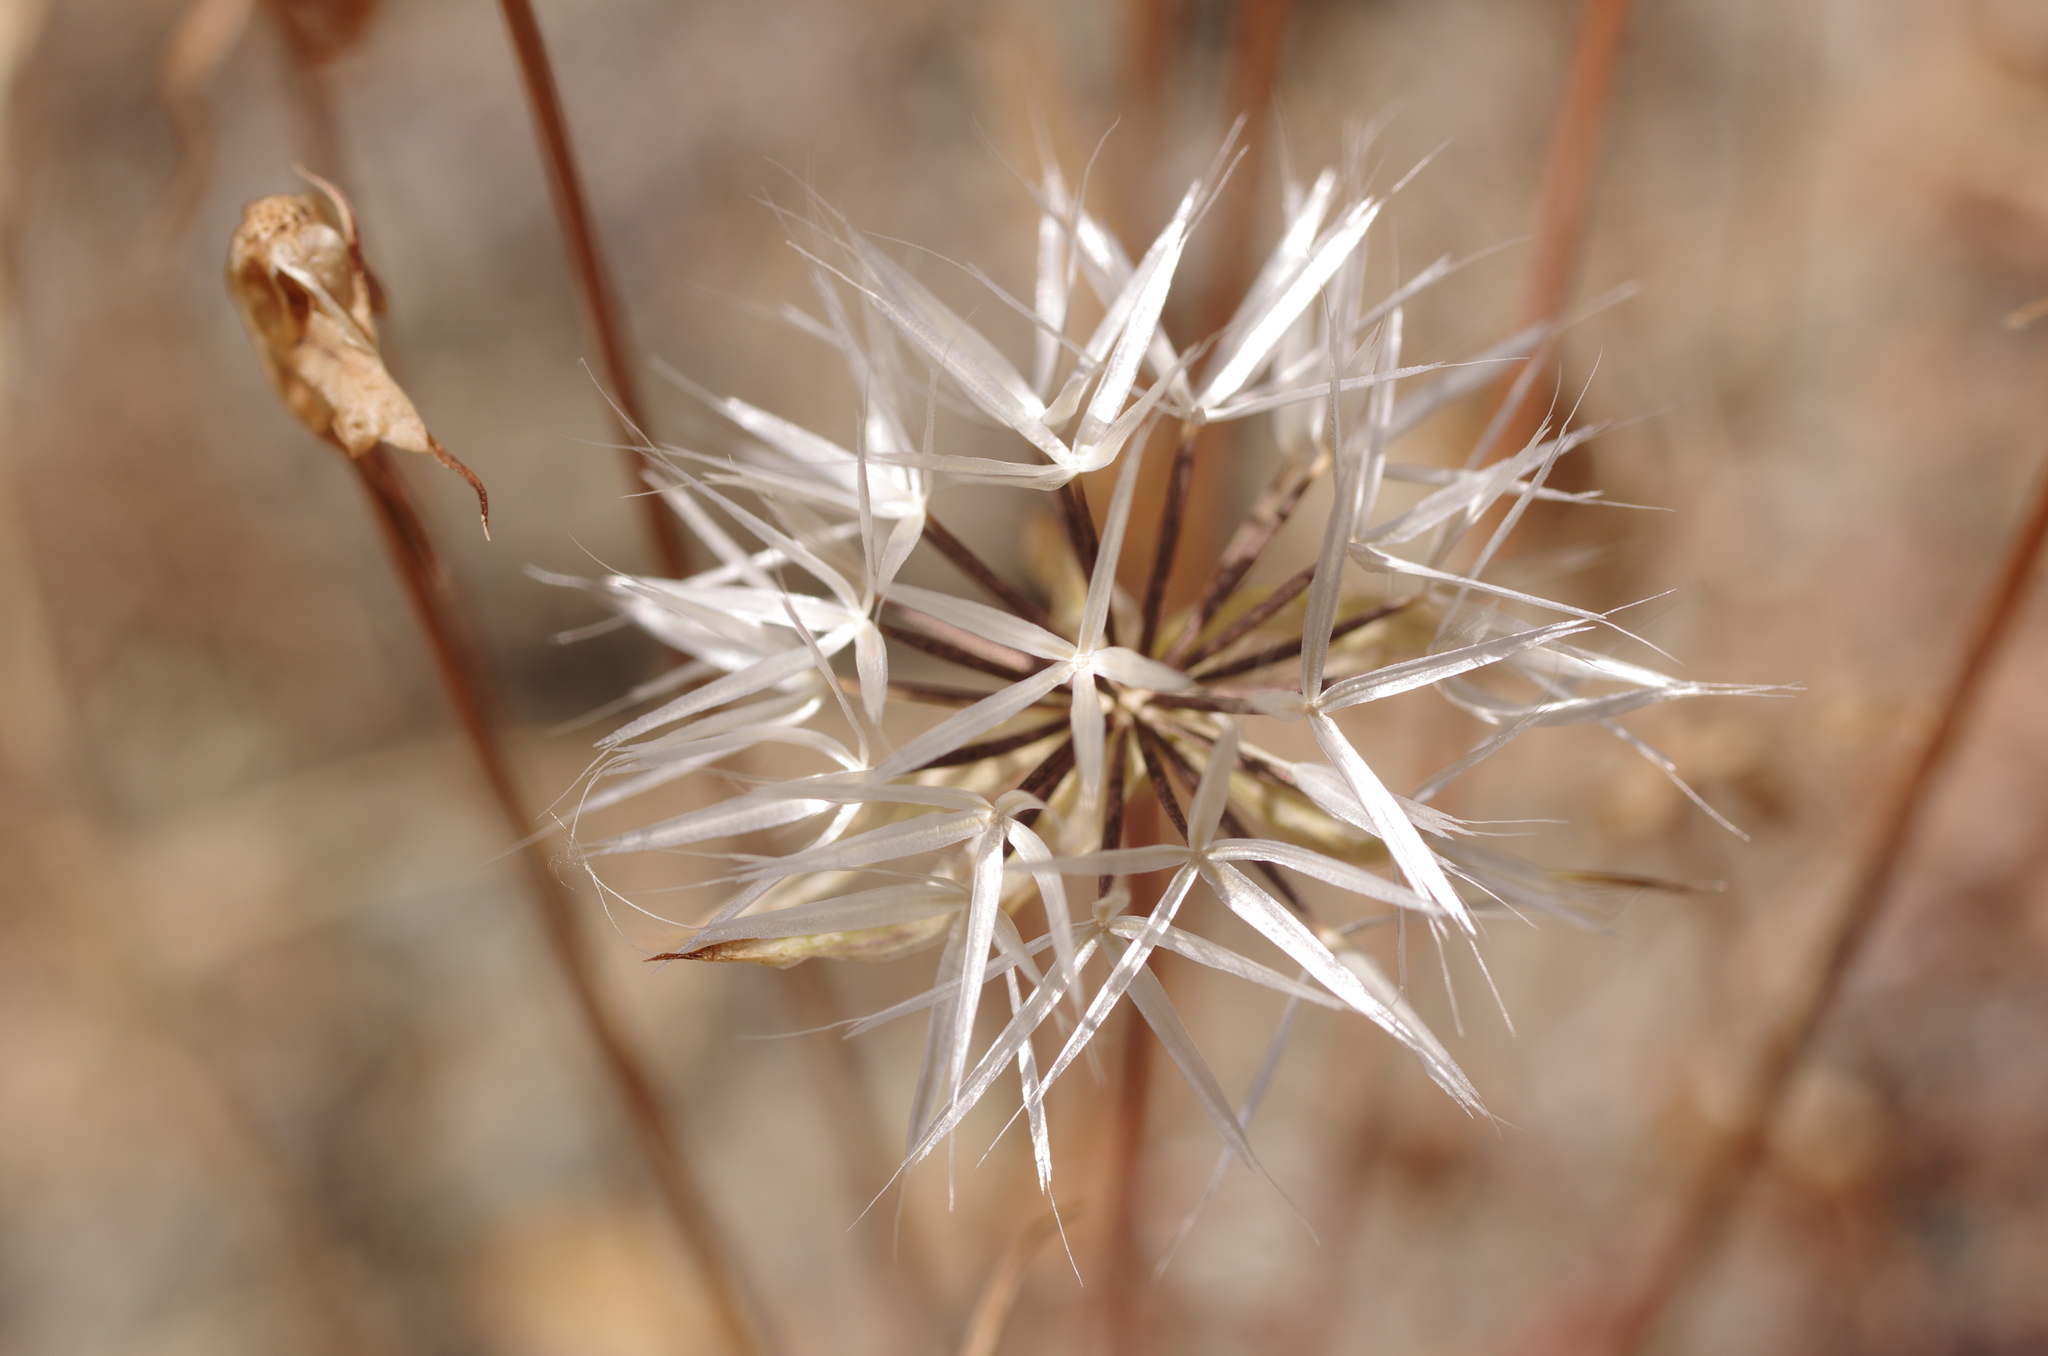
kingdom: Plantae
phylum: Tracheophyta
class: Magnoliopsida
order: Asterales
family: Asteraceae
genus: Microseris
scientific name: Microseris lindleyi
